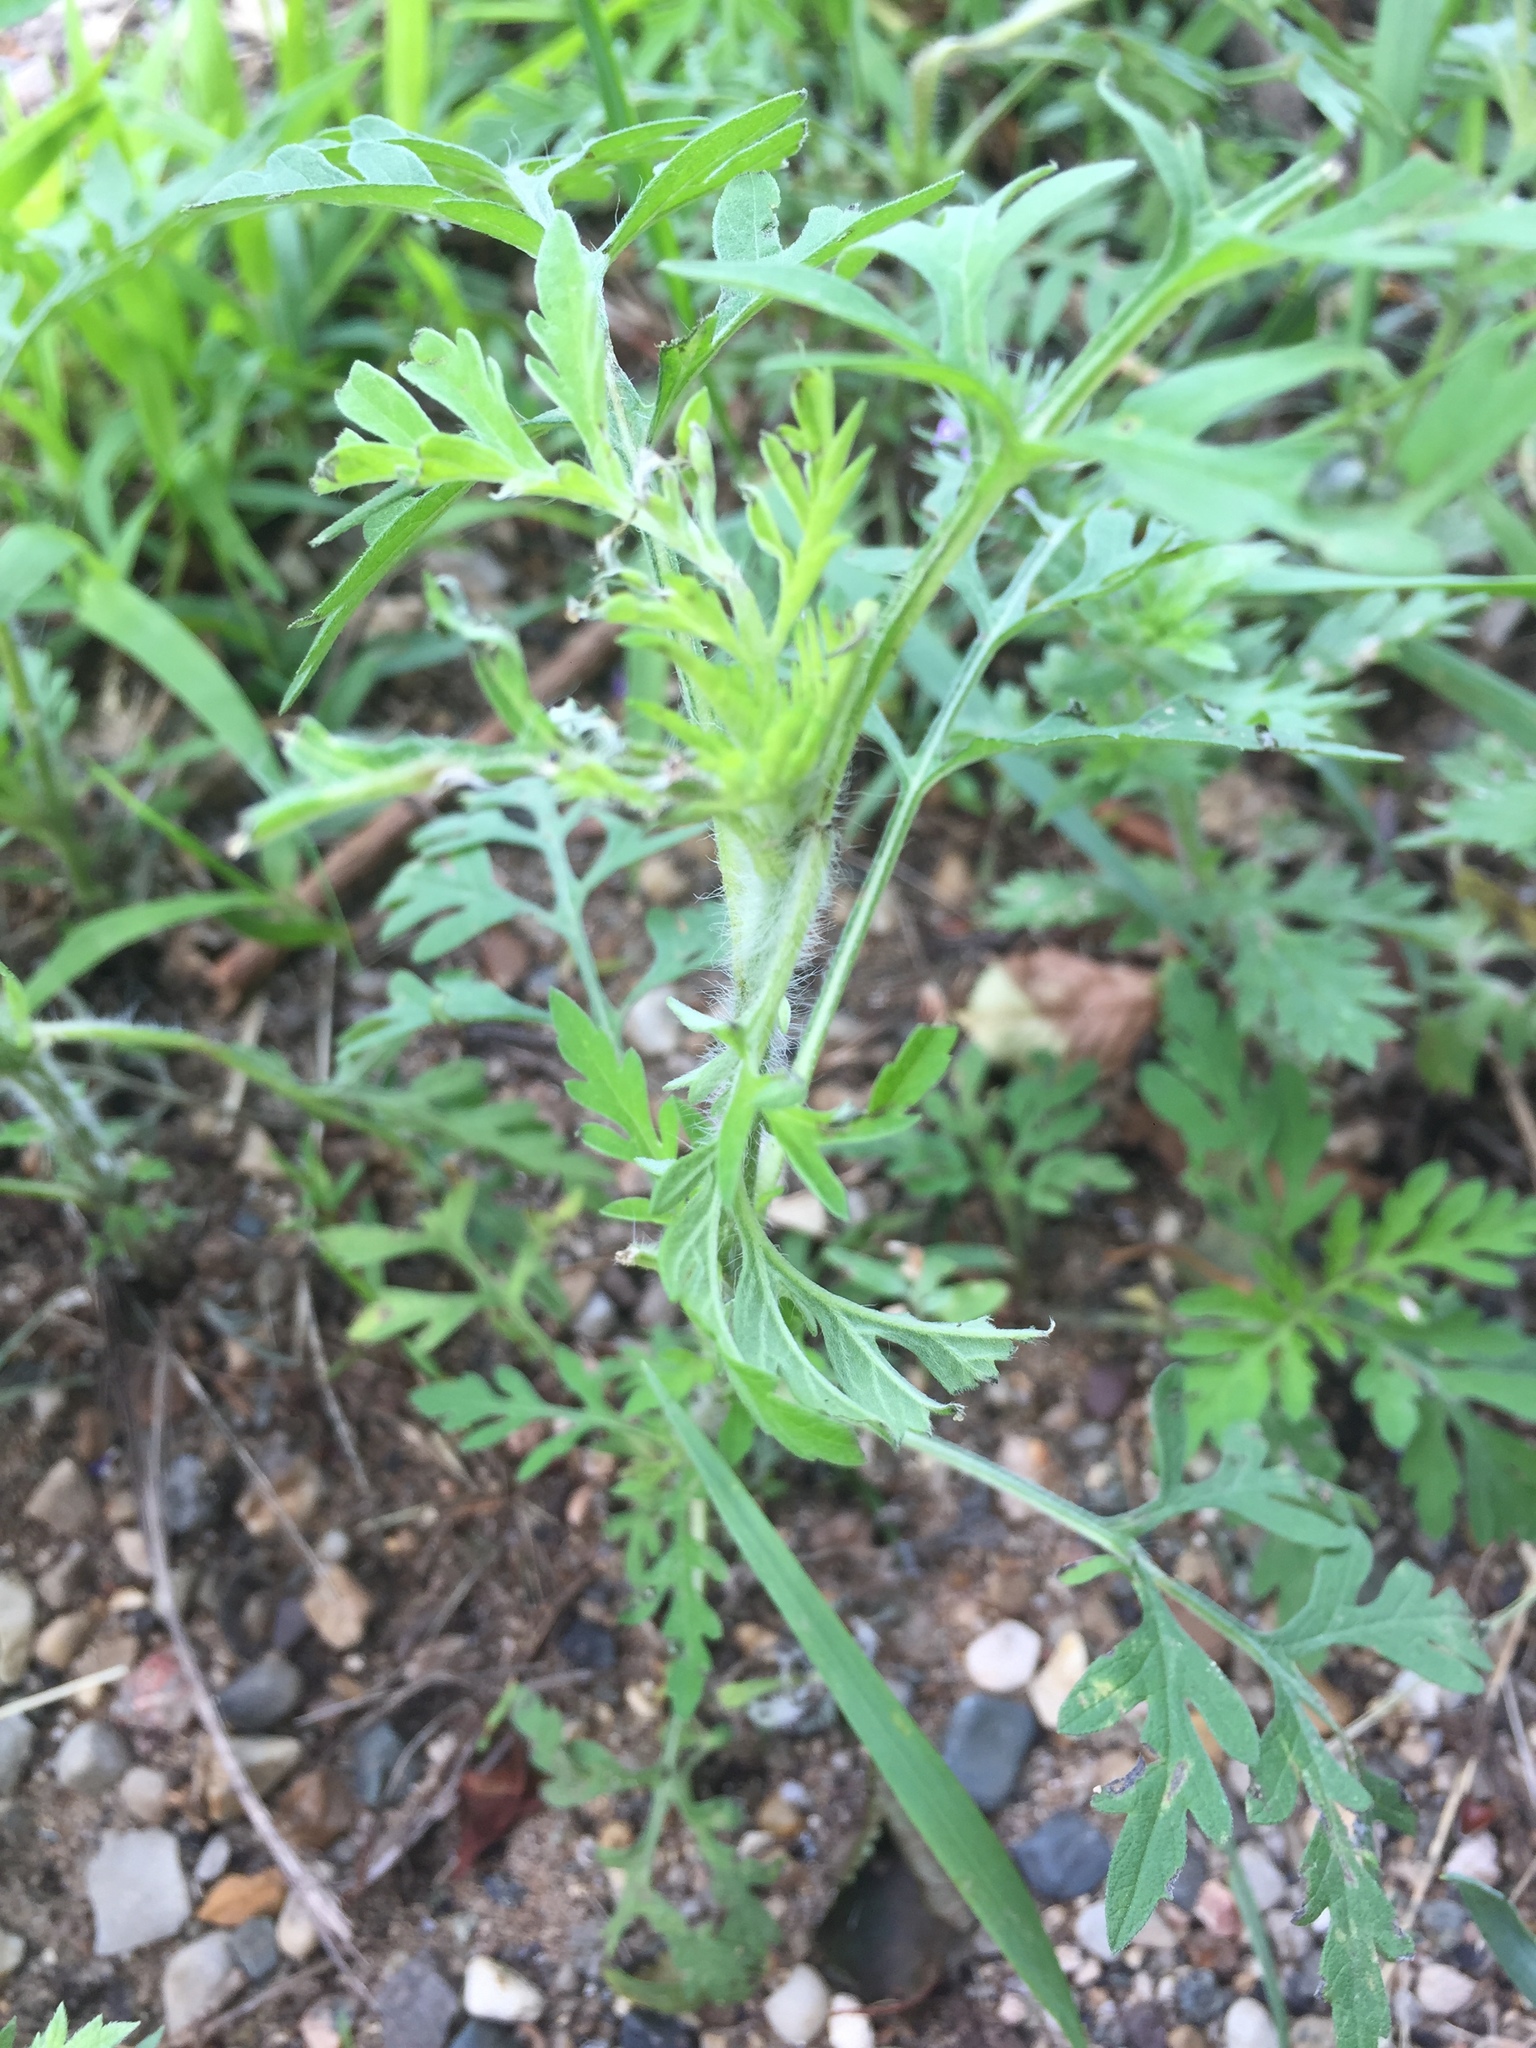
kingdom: Plantae
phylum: Tracheophyta
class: Magnoliopsida
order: Asterales
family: Asteraceae
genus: Ambrosia
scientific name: Ambrosia artemisiifolia
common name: Annual ragweed
